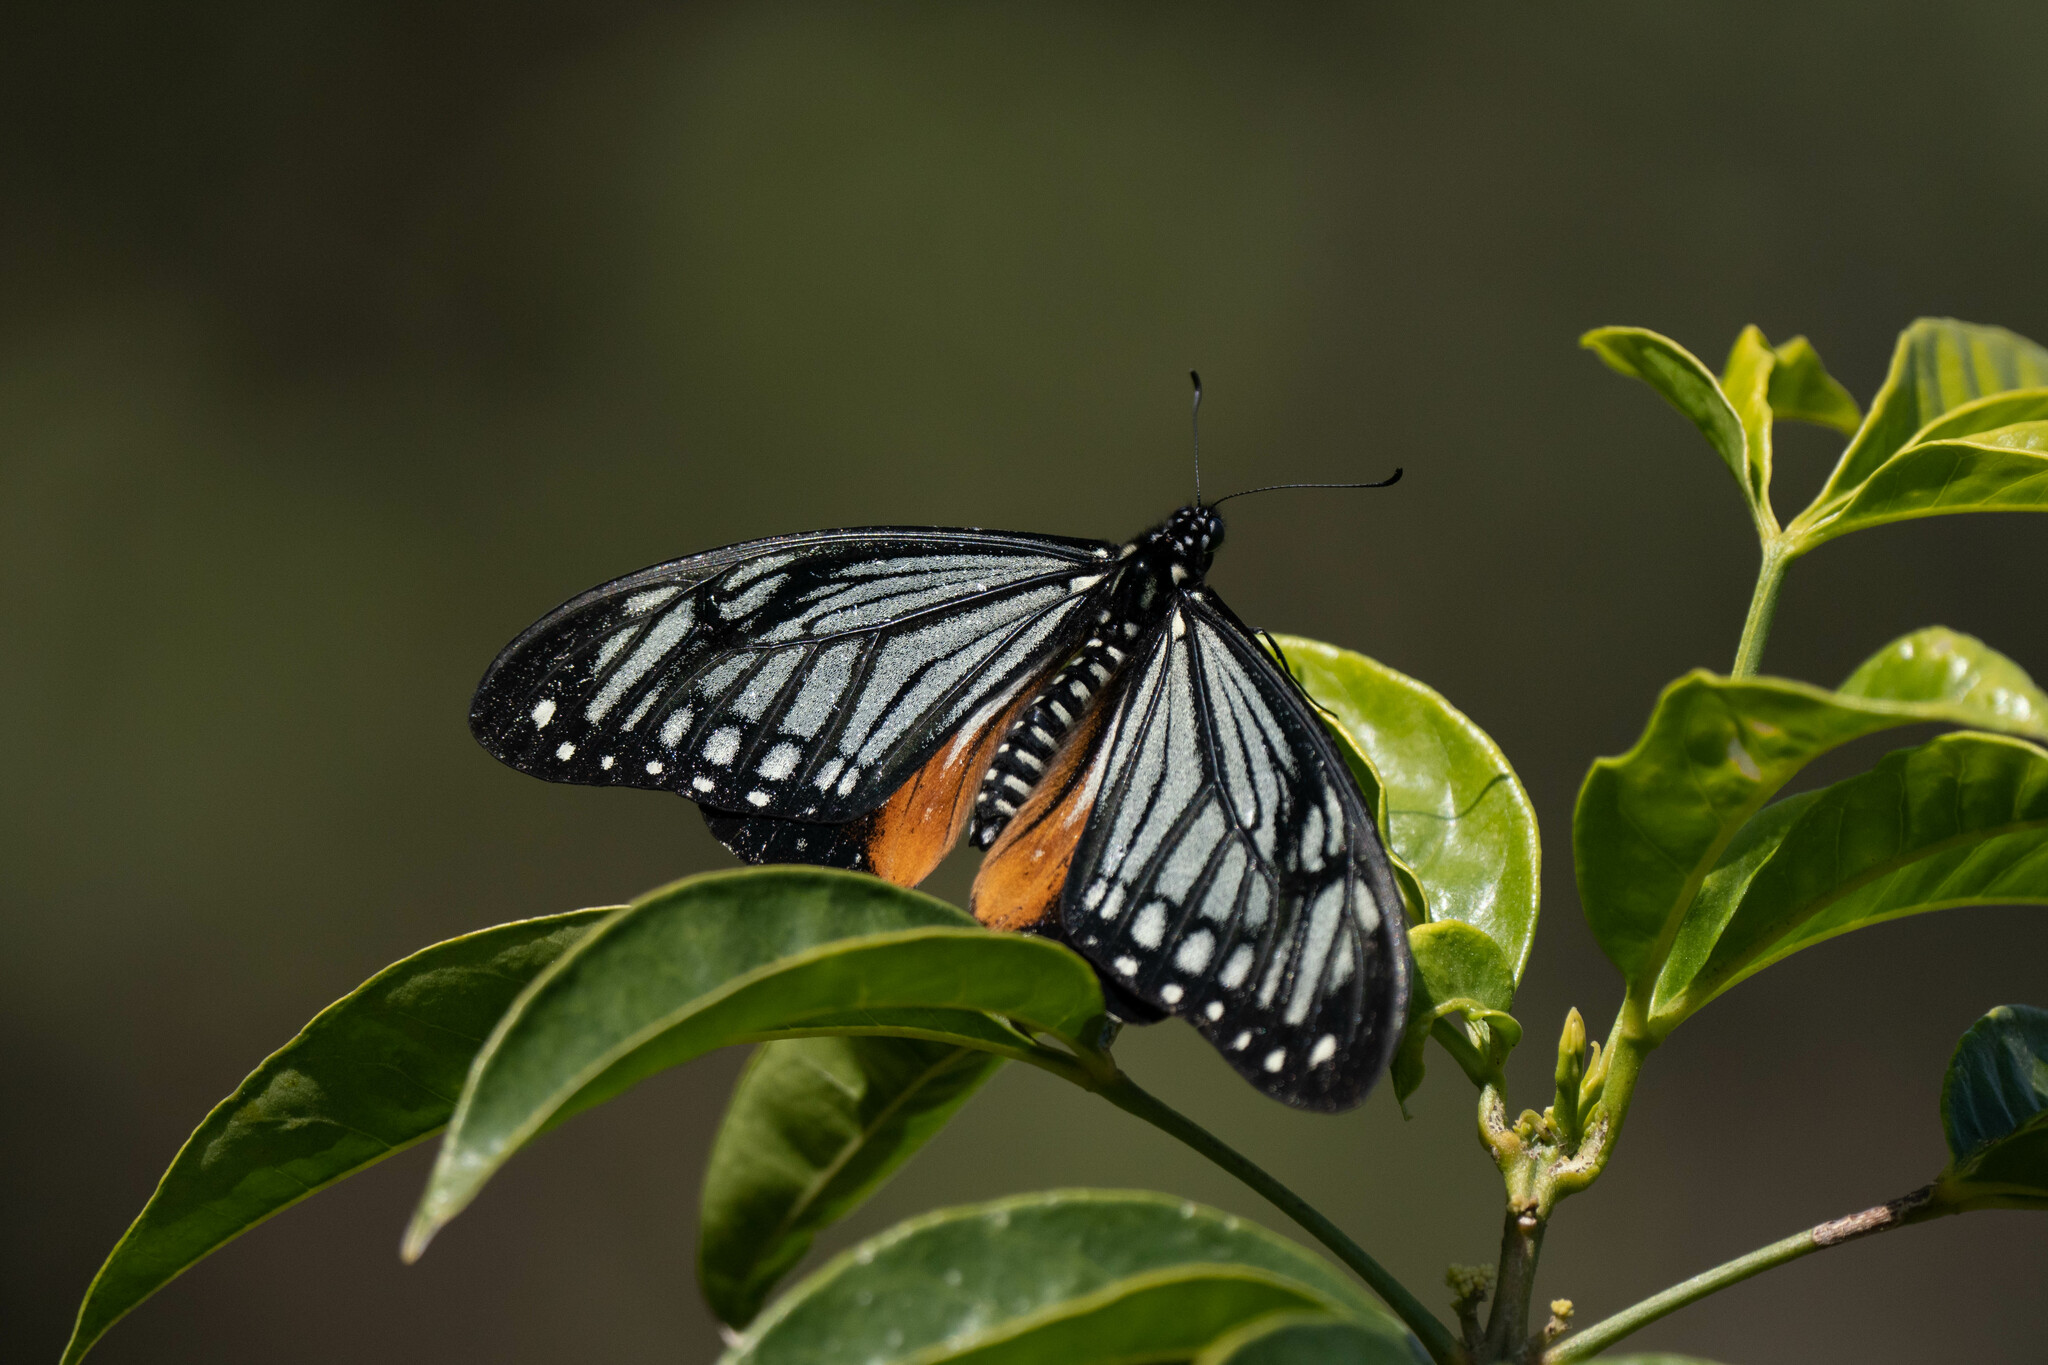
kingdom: Animalia
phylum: Arthropoda
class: Insecta
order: Lepidoptera
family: Lycaenidae
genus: Plebicula
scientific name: Plebicula escheri
